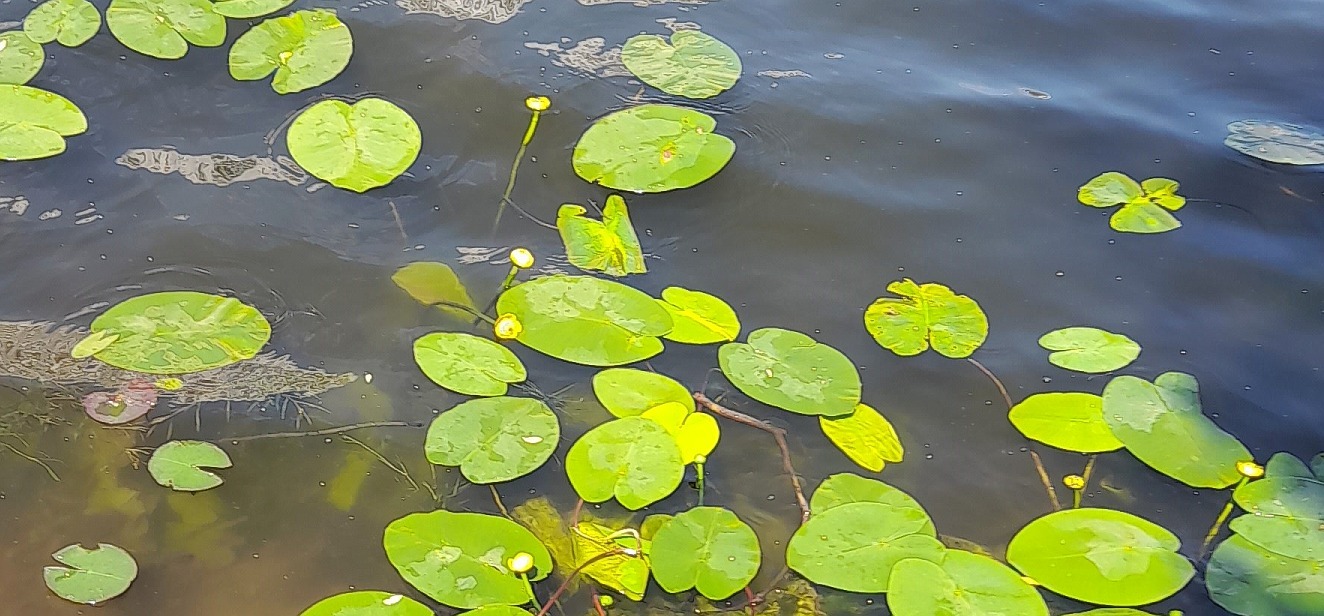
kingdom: Plantae
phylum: Tracheophyta
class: Magnoliopsida
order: Nymphaeales
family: Nymphaeaceae
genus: Nuphar
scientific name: Nuphar lutea
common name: Yellow water-lily
